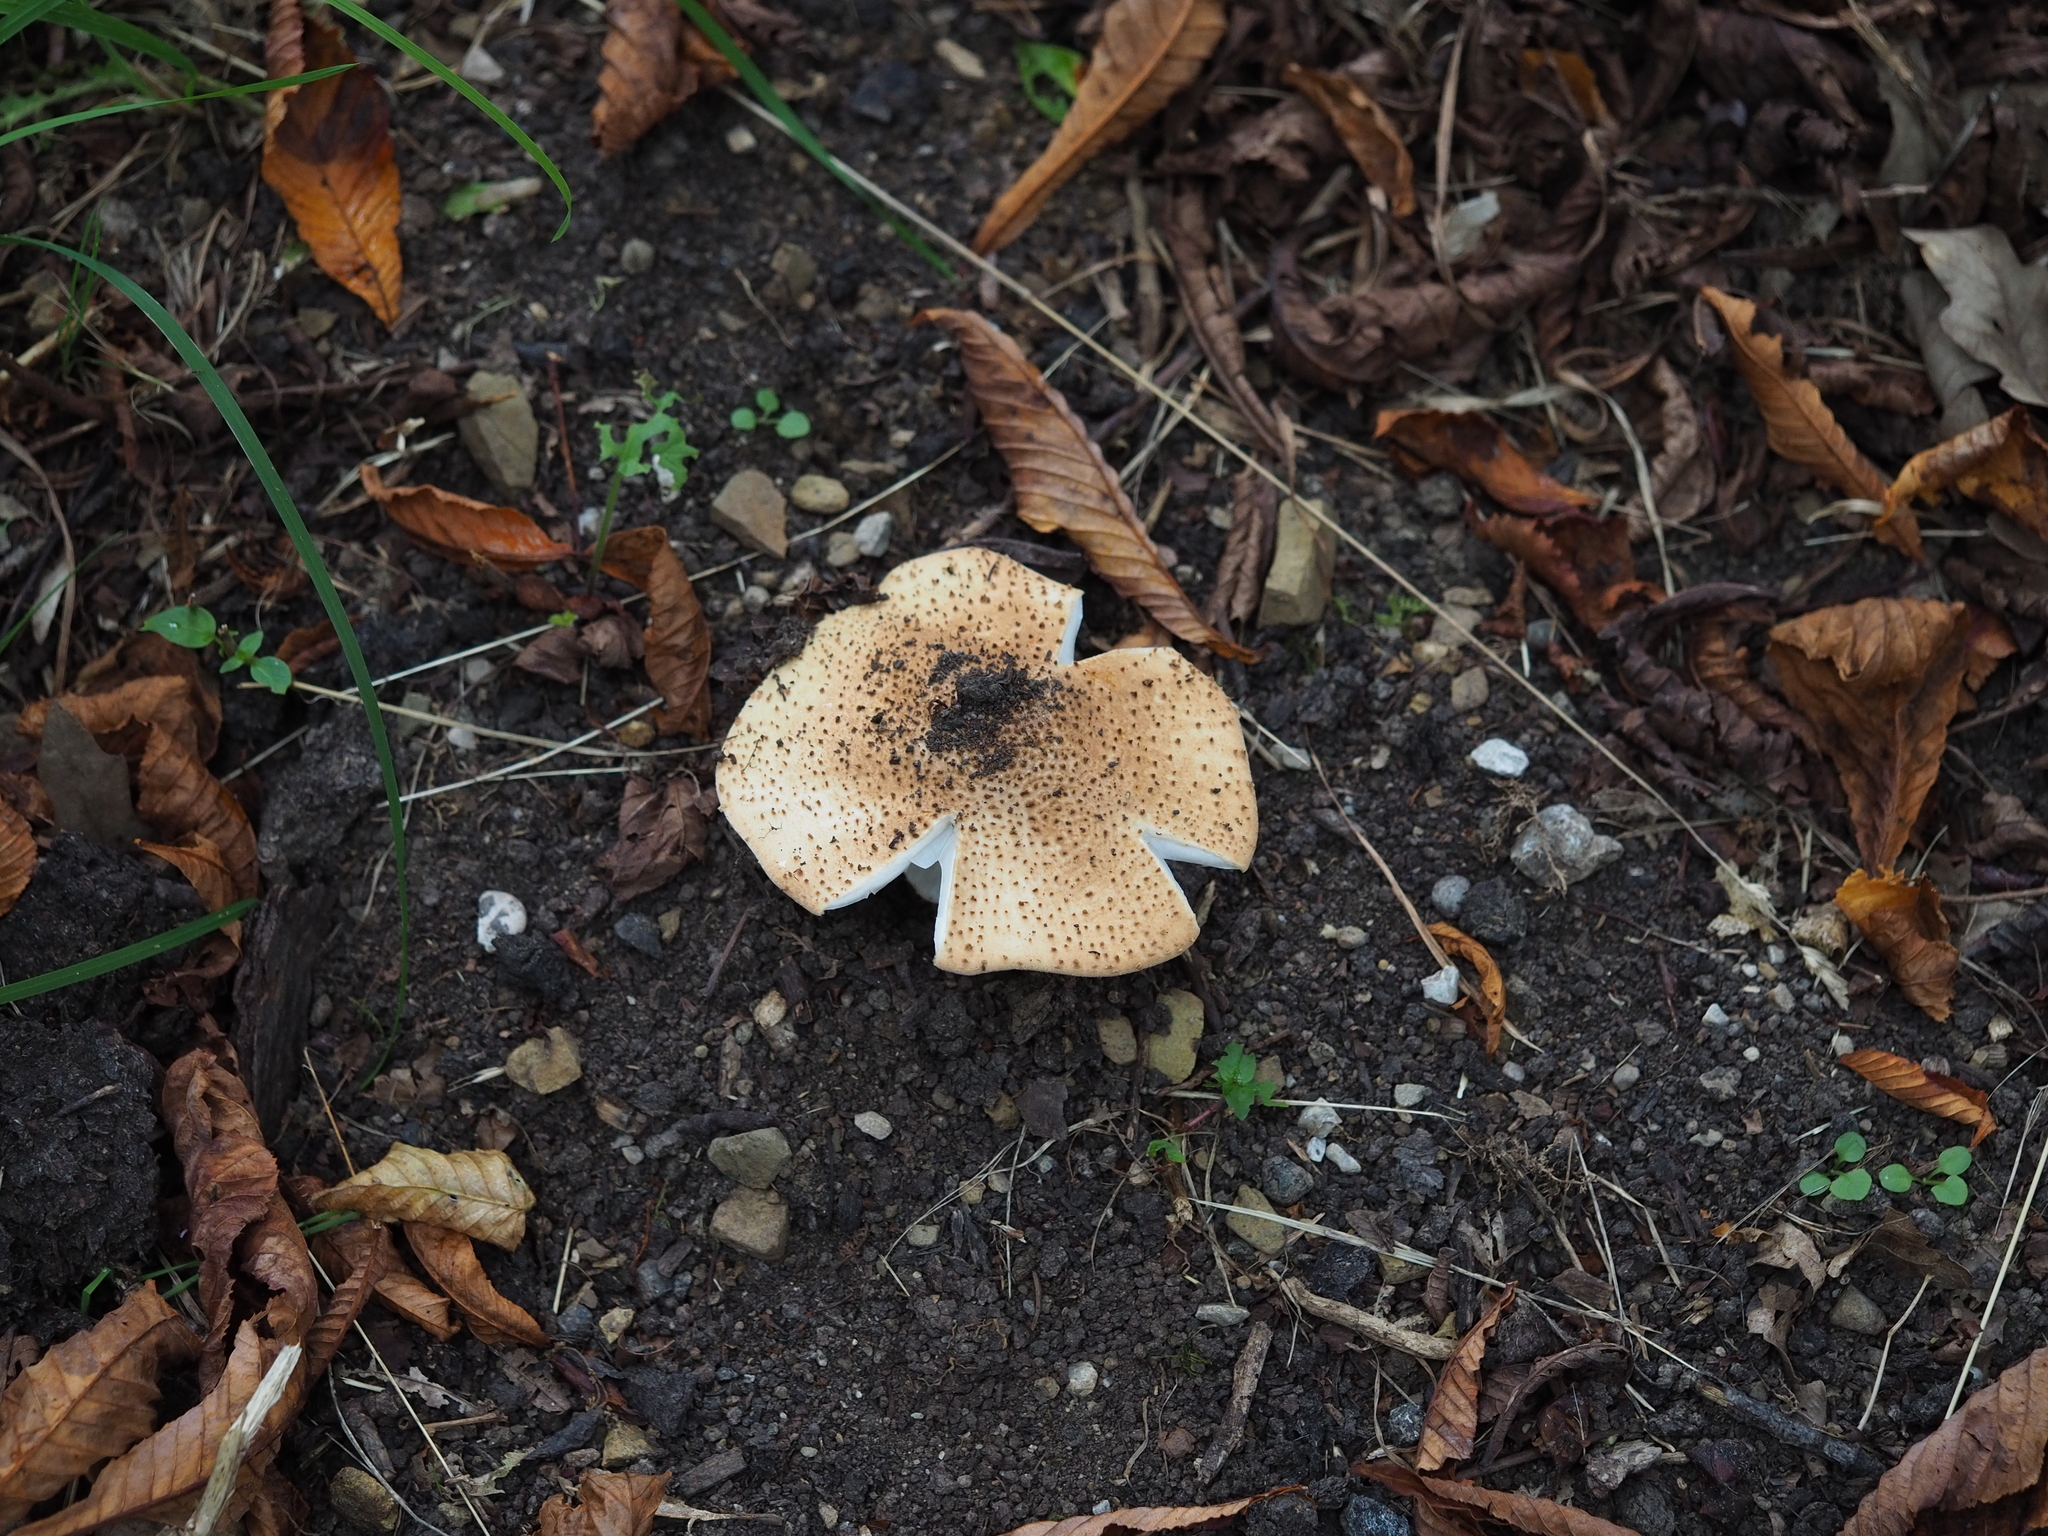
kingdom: Fungi
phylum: Basidiomycota
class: Agaricomycetes
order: Agaricales
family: Agaricaceae
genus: Echinoderma
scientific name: Echinoderma asperum
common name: Freckled dapperling
